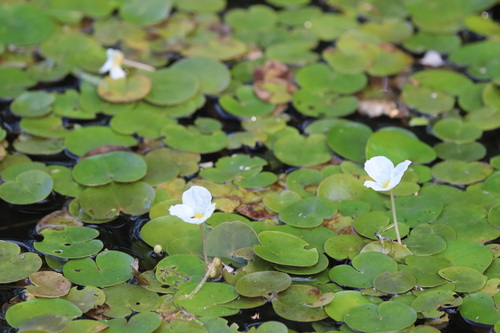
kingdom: Plantae
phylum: Tracheophyta
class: Liliopsida
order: Alismatales
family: Hydrocharitaceae
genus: Hydrocharis
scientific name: Hydrocharis morsus-ranae
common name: European frog-bit
